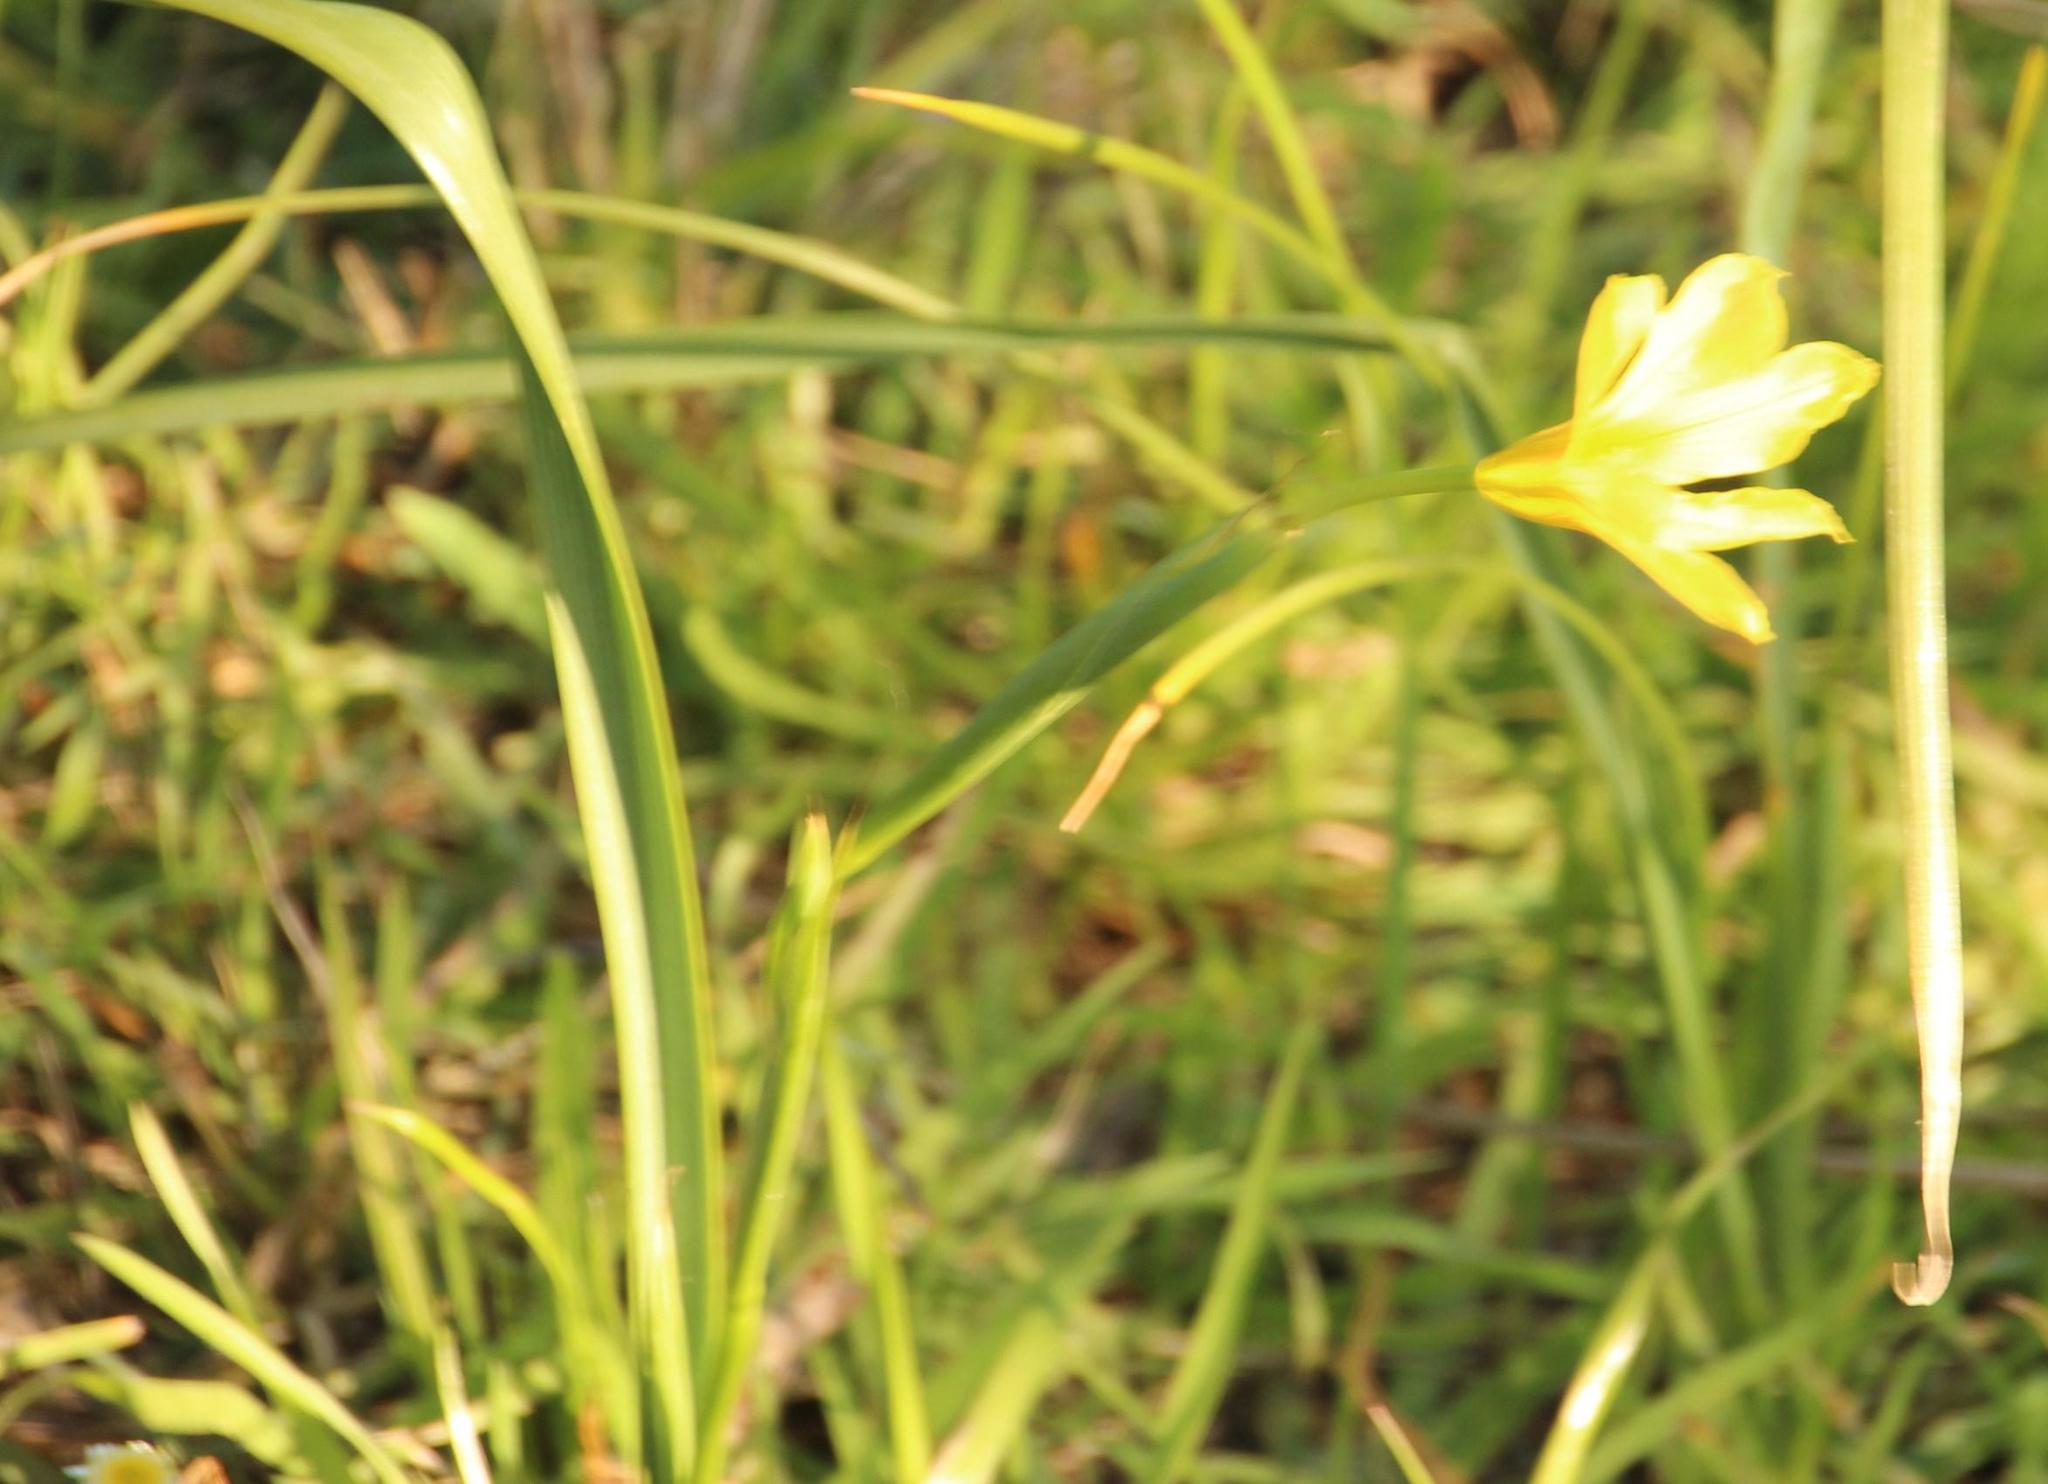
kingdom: Plantae
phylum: Tracheophyta
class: Liliopsida
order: Asparagales
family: Iridaceae
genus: Moraea
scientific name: Moraea collina
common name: Cape-tulip
